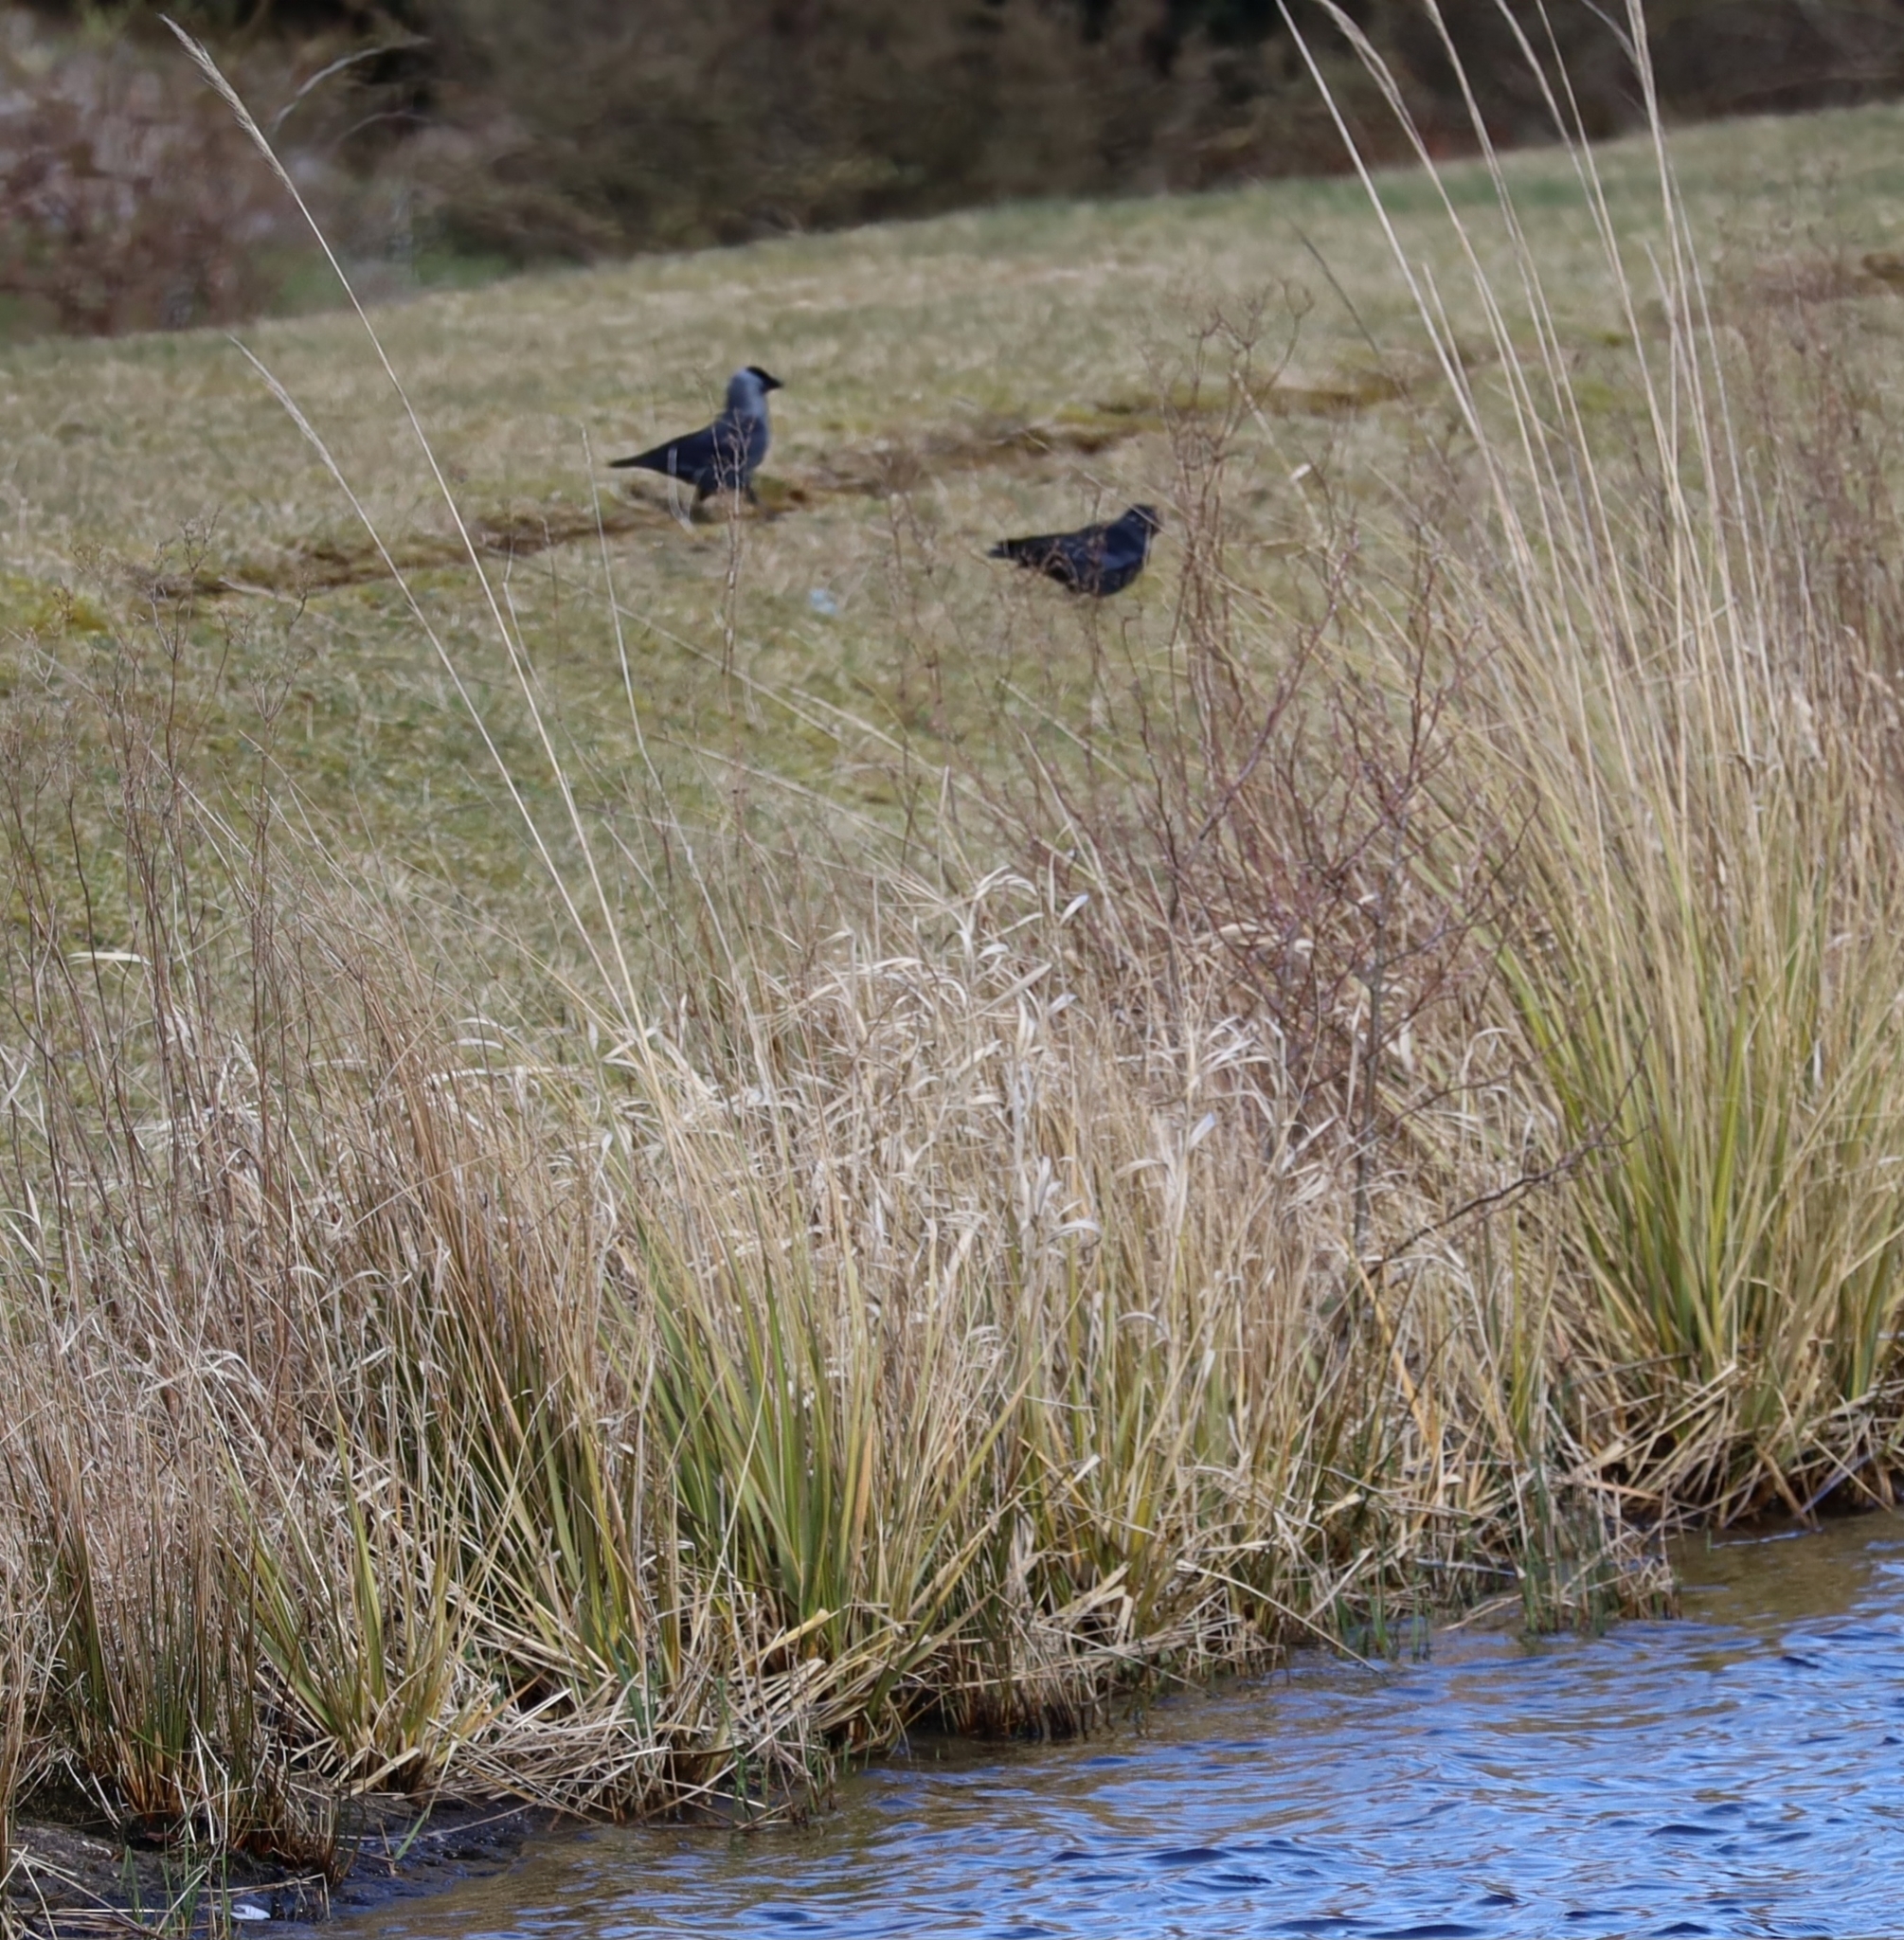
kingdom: Animalia
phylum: Chordata
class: Aves
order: Passeriformes
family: Corvidae
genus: Coloeus
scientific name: Coloeus monedula
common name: Western jackdaw
